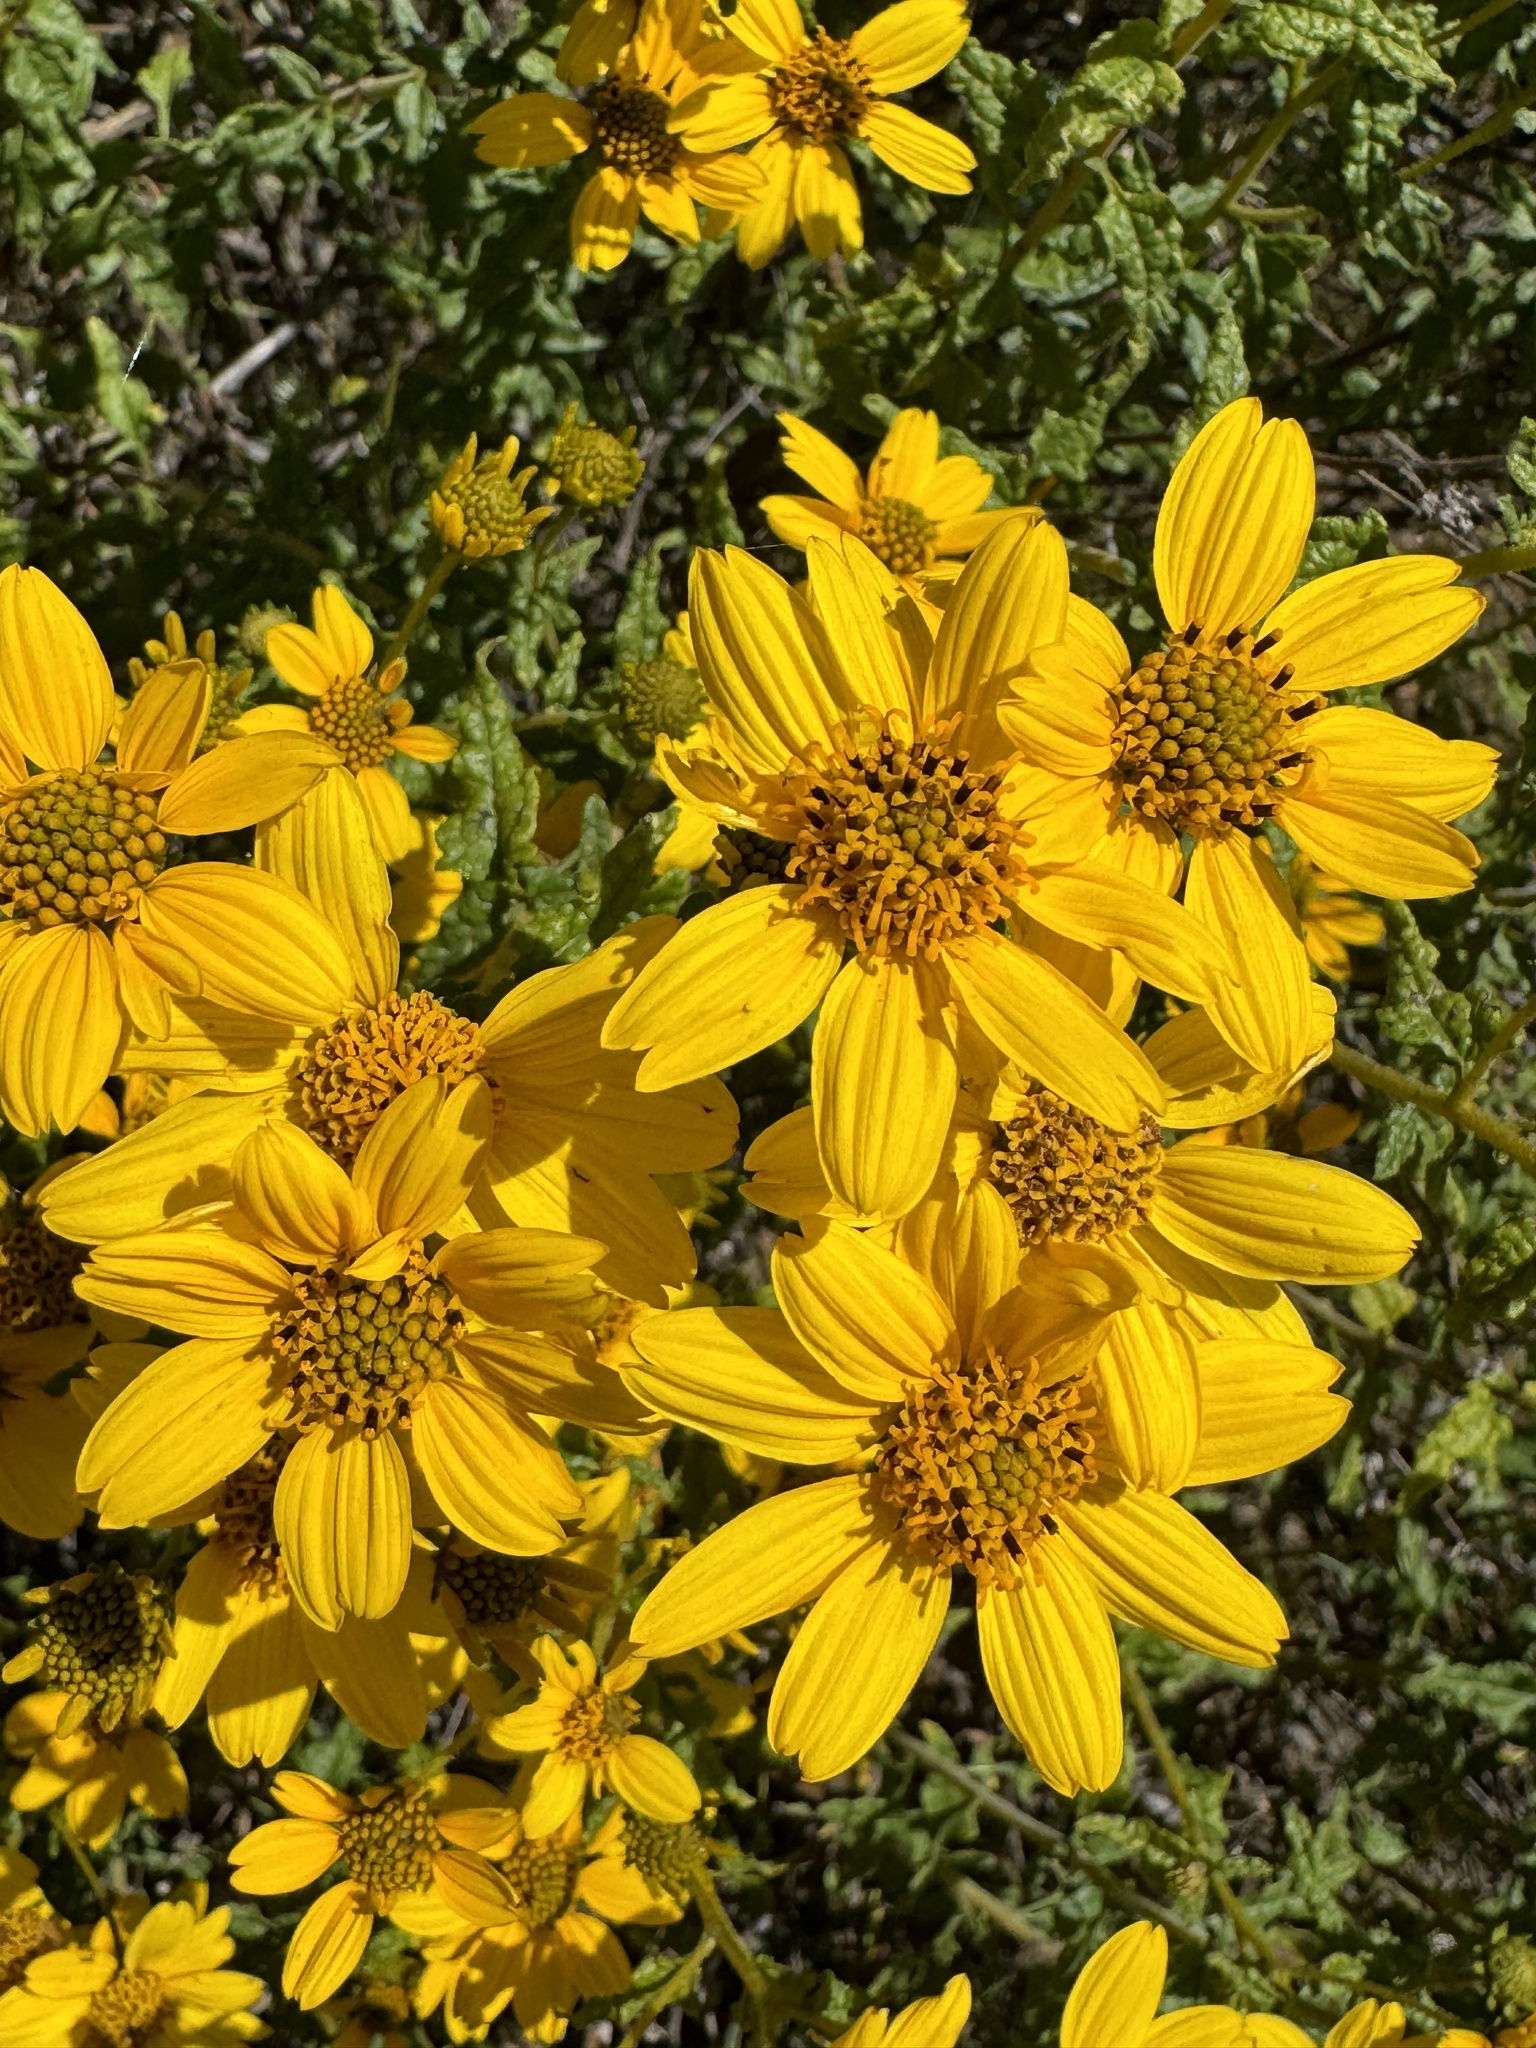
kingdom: Plantae
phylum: Tracheophyta
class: Magnoliopsida
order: Asterales
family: Asteraceae
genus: Bahiopsis
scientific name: Bahiopsis laciniata
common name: San diego county viguiera
